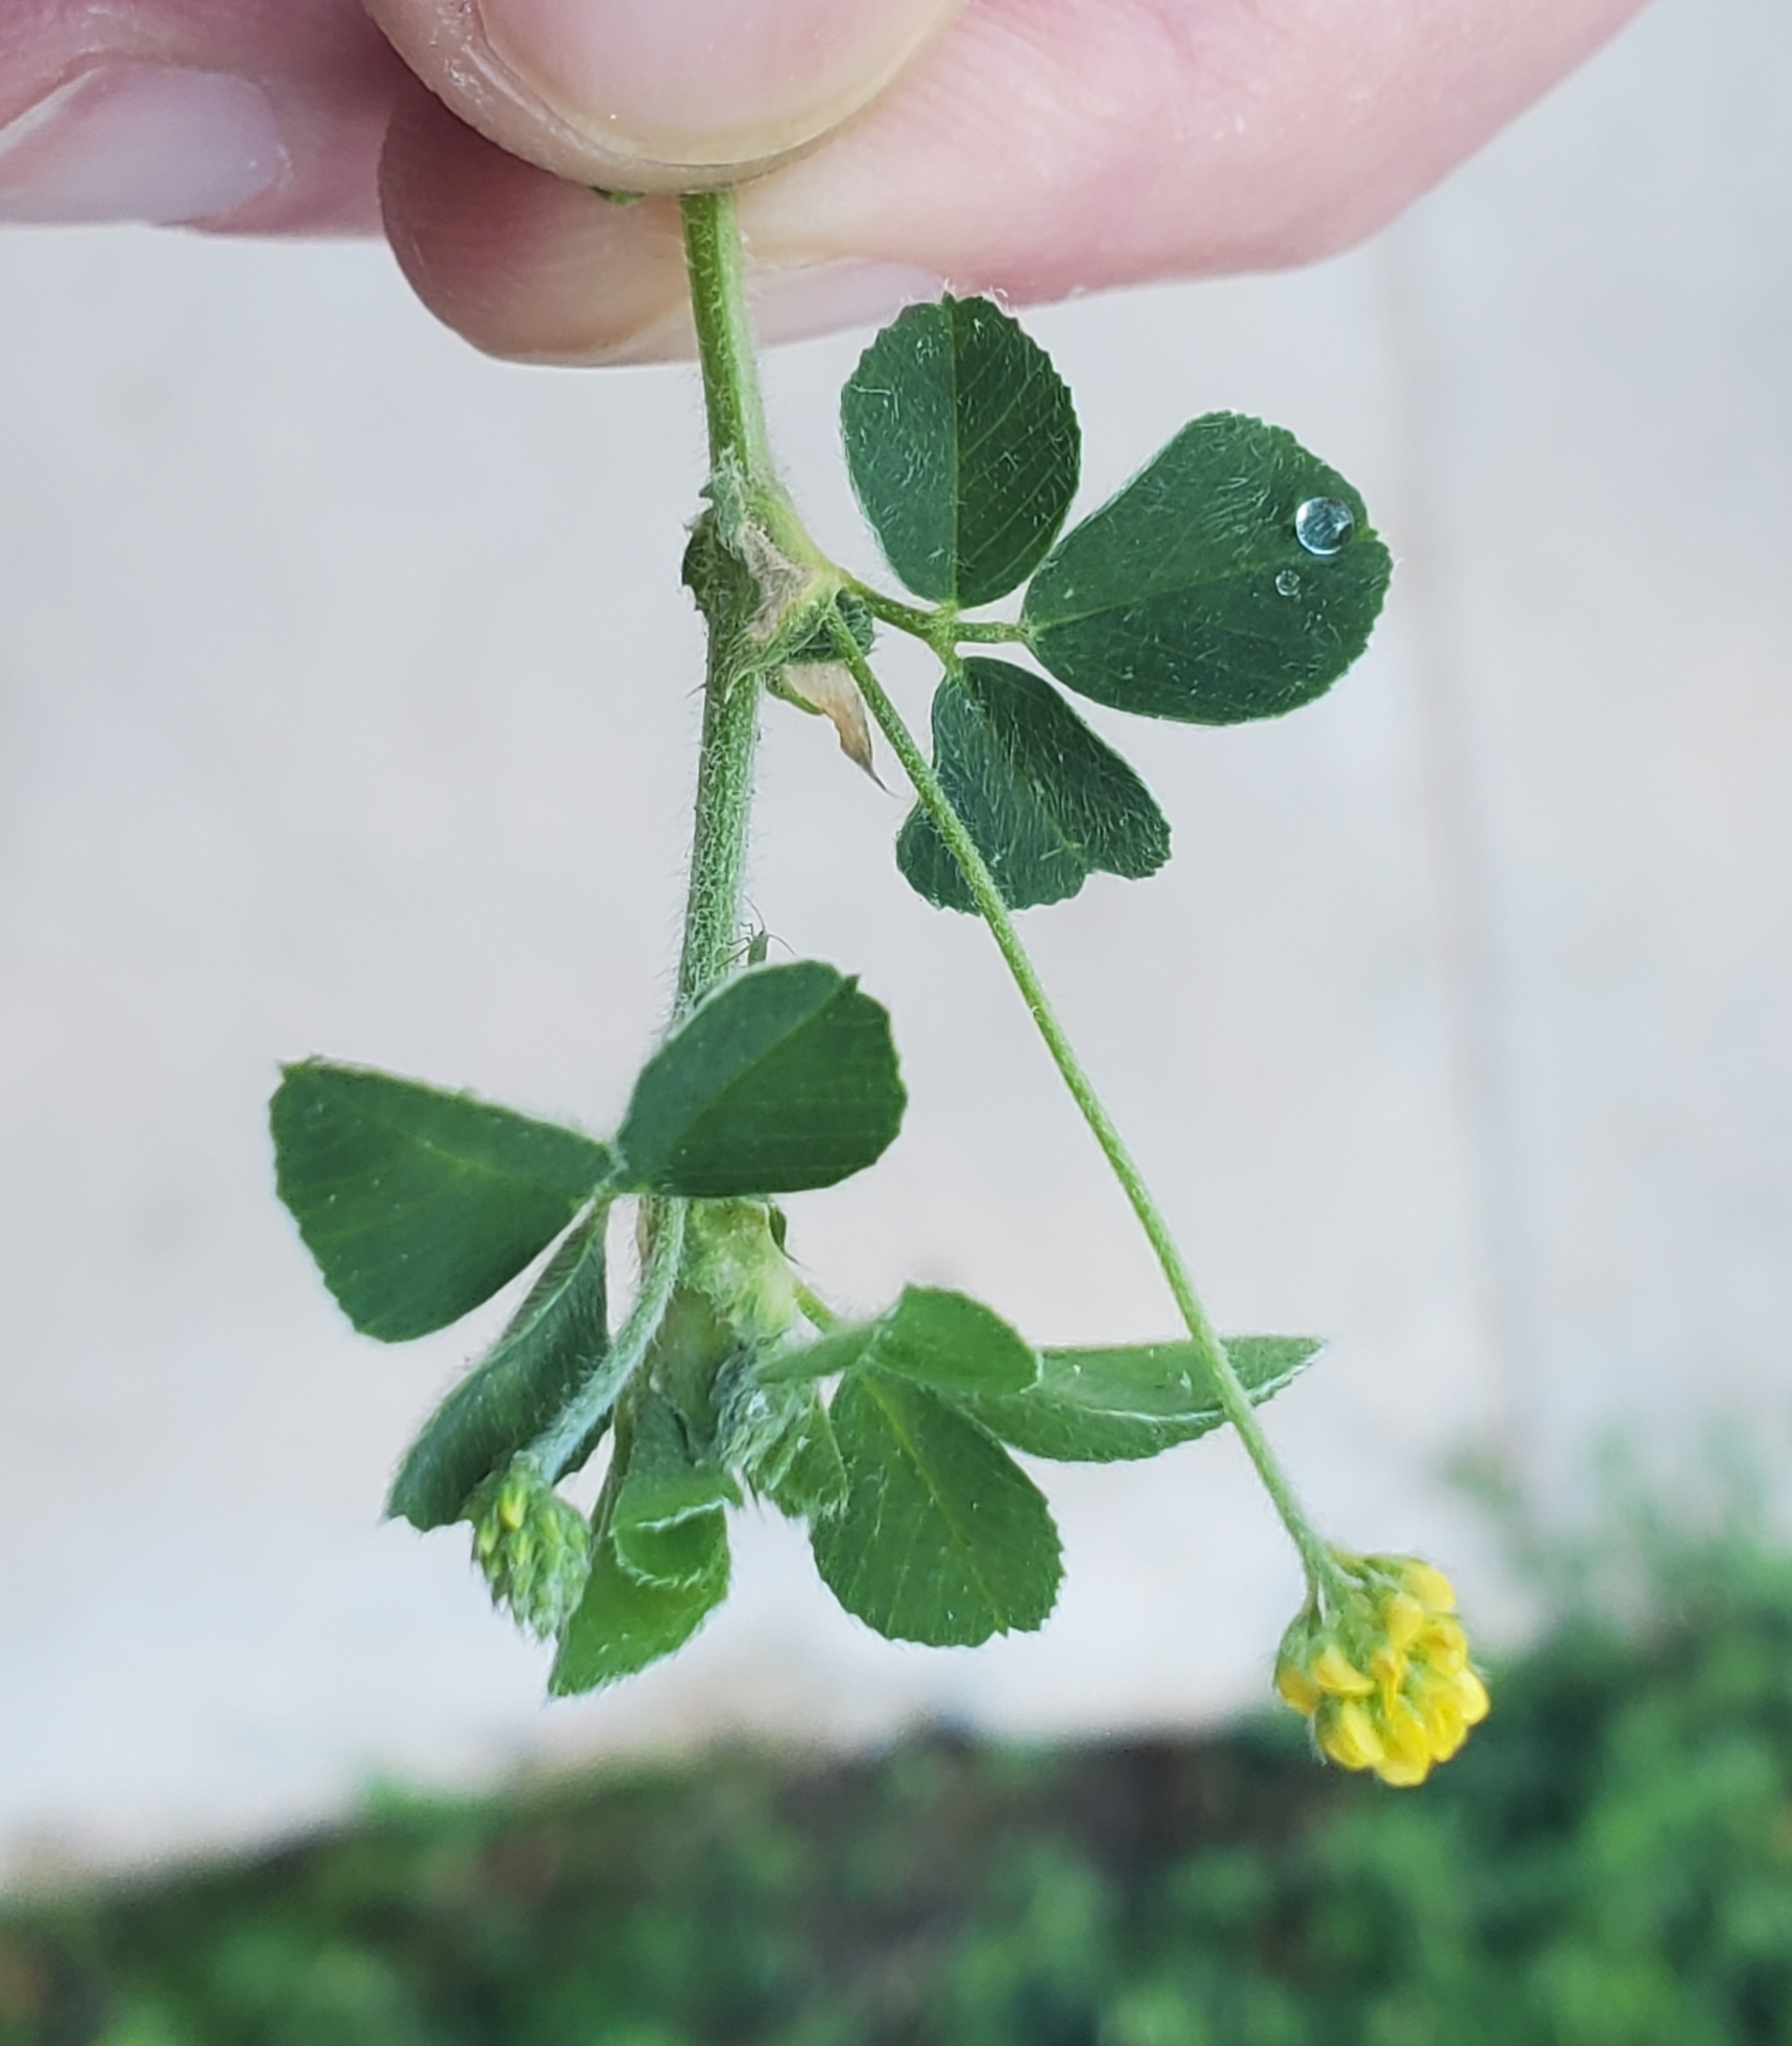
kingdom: Plantae
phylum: Tracheophyta
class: Magnoliopsida
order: Fabales
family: Fabaceae
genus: Medicago
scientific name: Medicago lupulina
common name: Black medick
